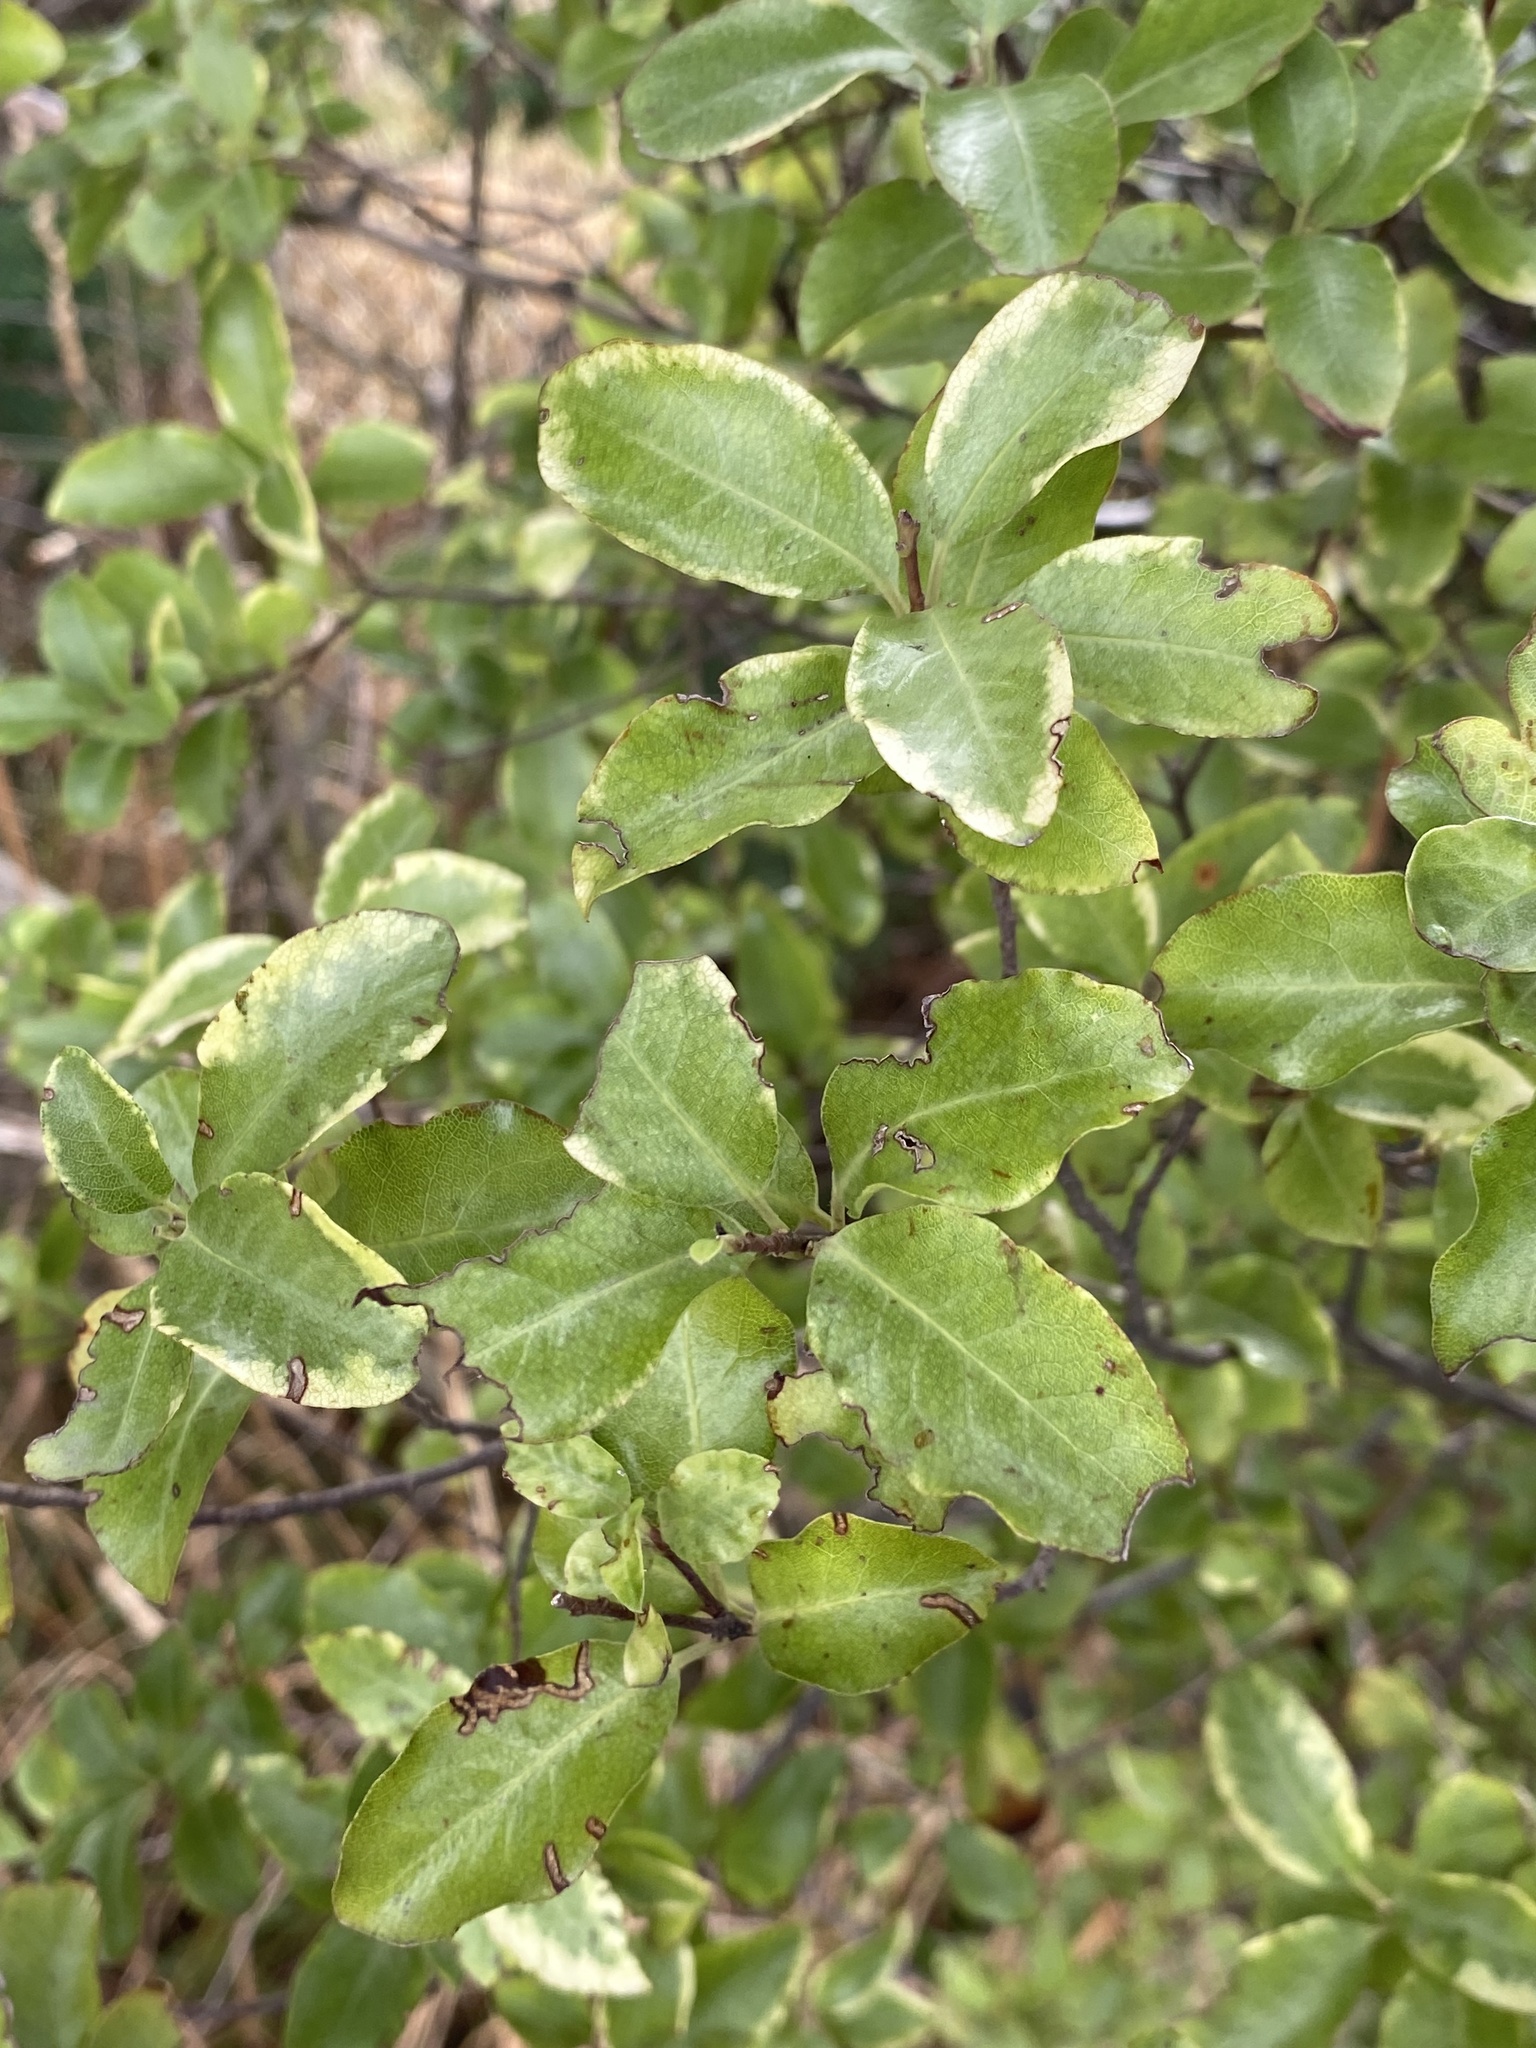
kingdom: Plantae
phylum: Tracheophyta
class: Magnoliopsida
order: Apiales
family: Pittosporaceae
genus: Pittosporum
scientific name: Pittosporum tenuifolium
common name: Kohuhu
